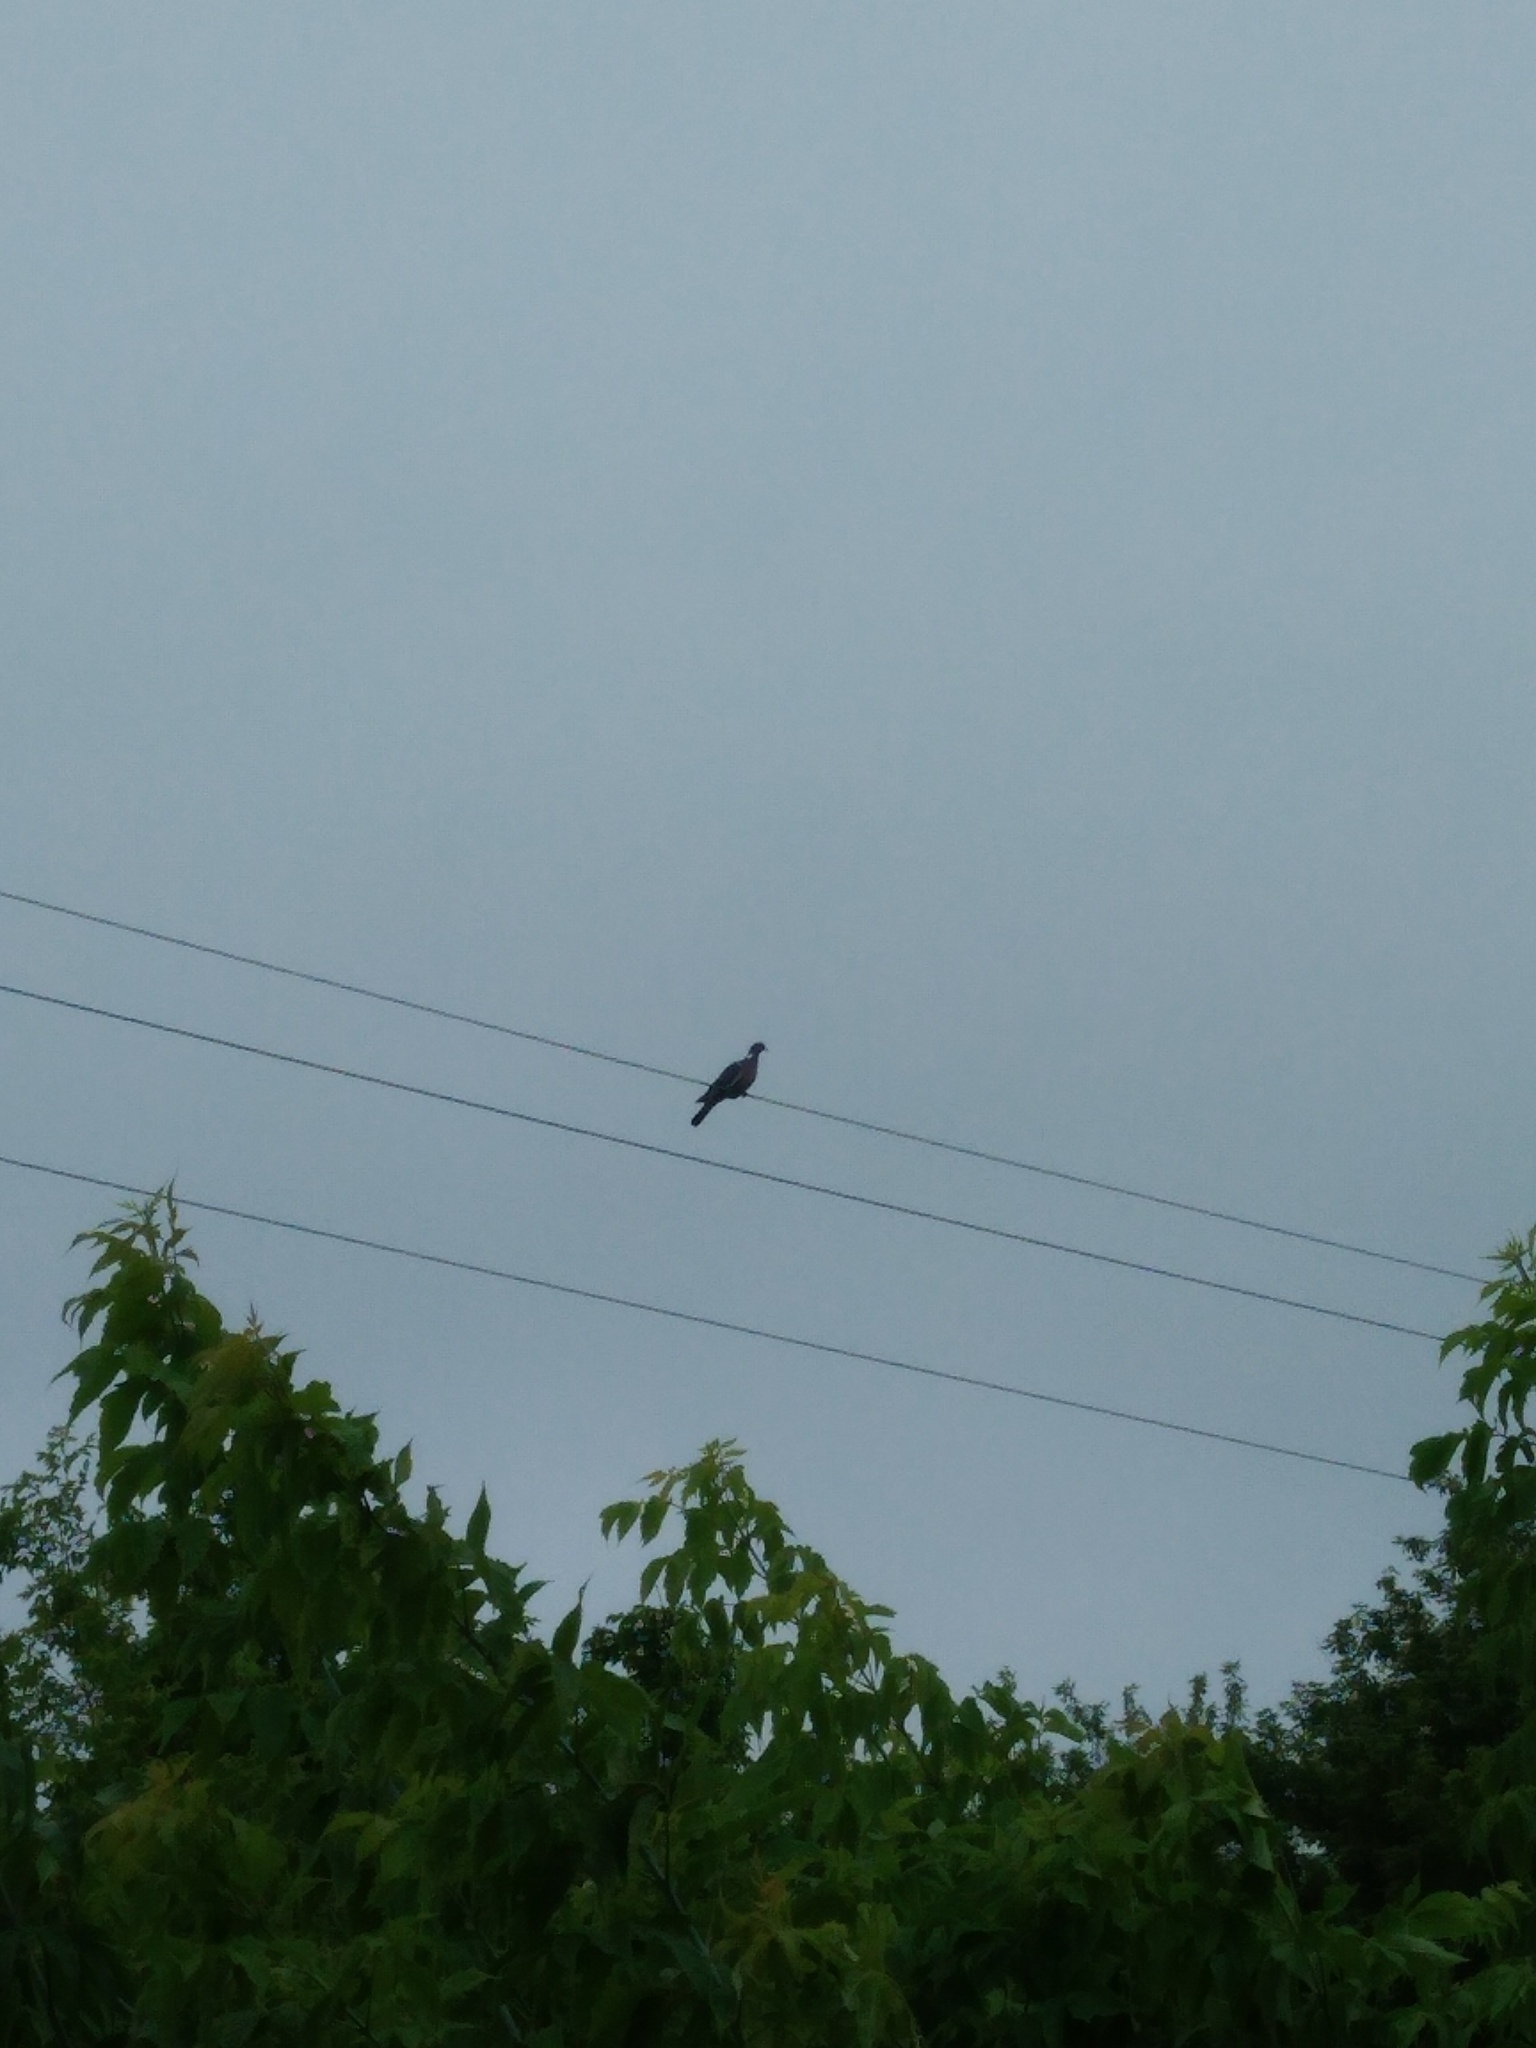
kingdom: Animalia
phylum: Chordata
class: Aves
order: Columbiformes
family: Columbidae
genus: Columba
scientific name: Columba palumbus
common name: Common wood pigeon
